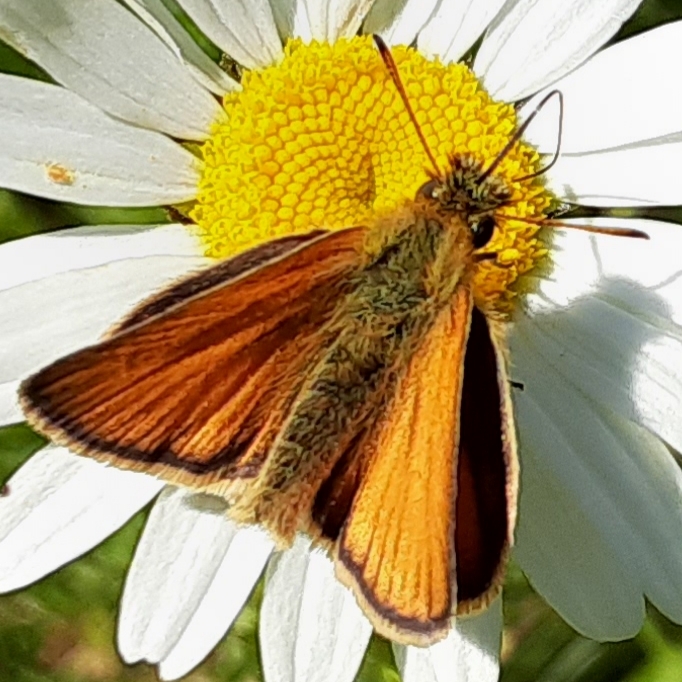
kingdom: Animalia
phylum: Arthropoda
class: Insecta
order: Lepidoptera
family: Hesperiidae
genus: Thymelicus
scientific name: Thymelicus lineola
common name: Essex skipper
